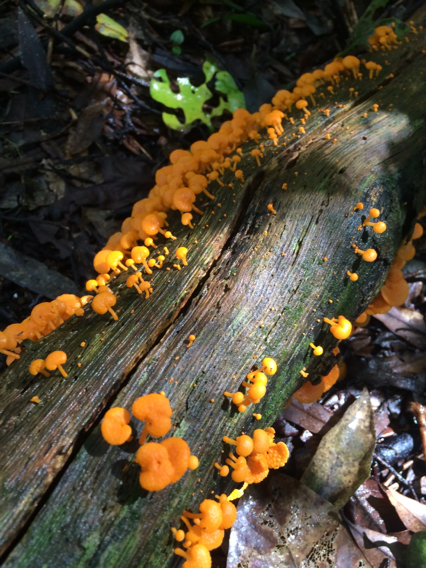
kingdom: Fungi
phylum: Basidiomycota
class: Agaricomycetes
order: Agaricales
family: Mycenaceae
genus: Favolaschia
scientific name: Favolaschia claudopus
